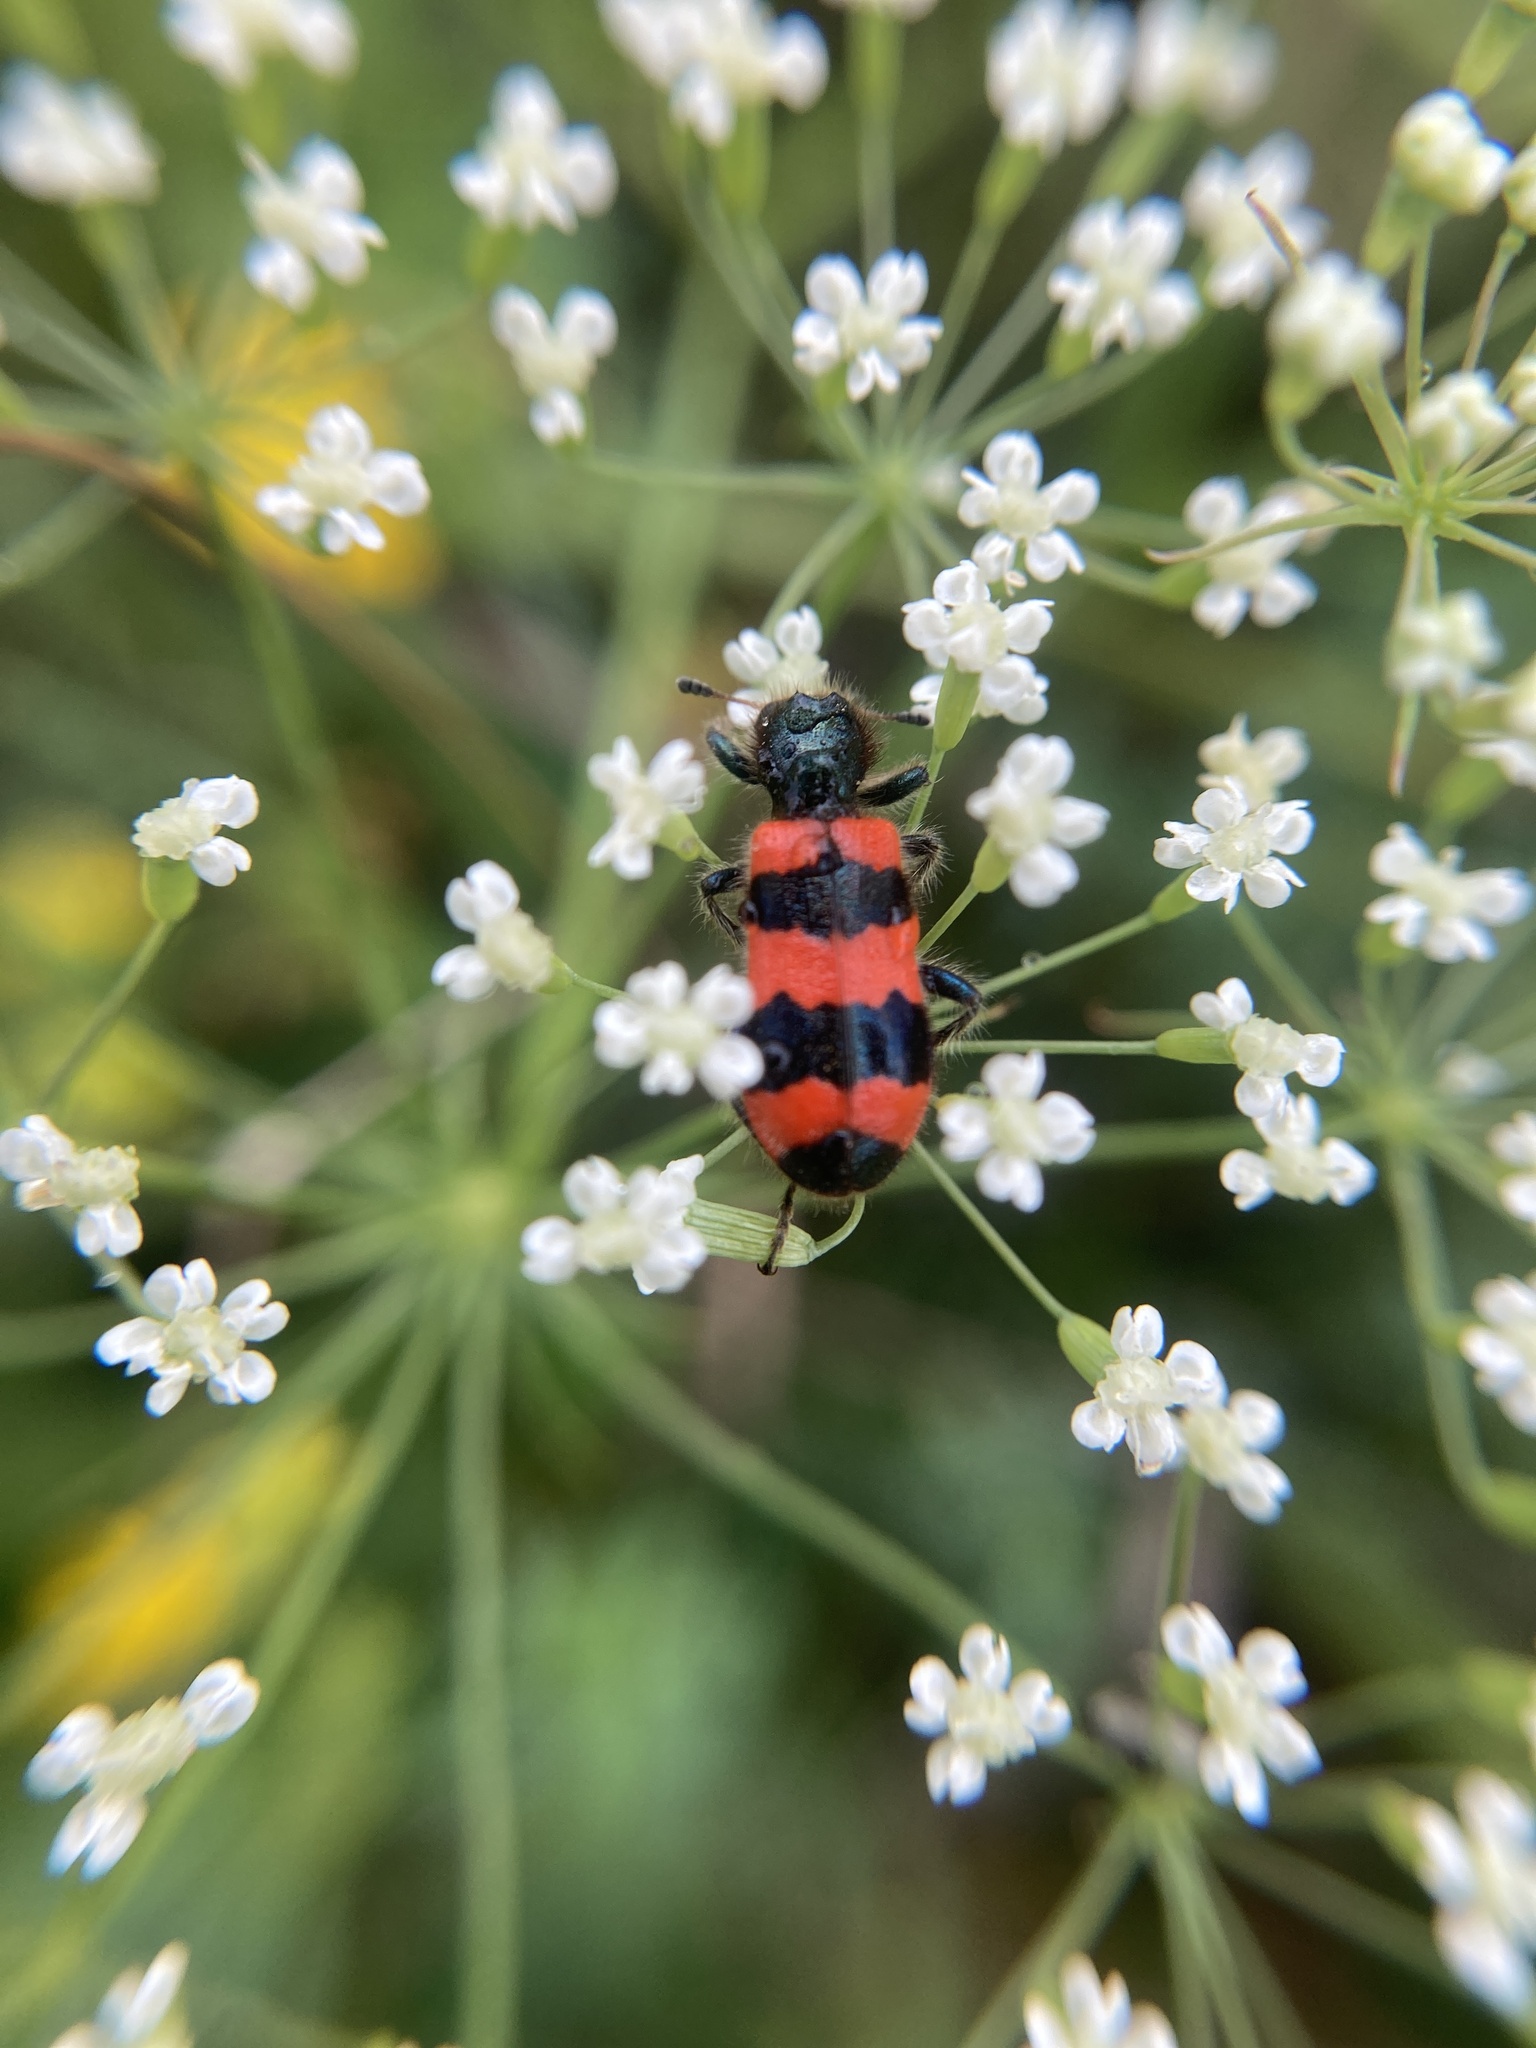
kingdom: Animalia
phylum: Arthropoda
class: Insecta
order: Coleoptera
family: Cleridae
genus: Trichodes
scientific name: Trichodes apiarius
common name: Bee-eating beetle
